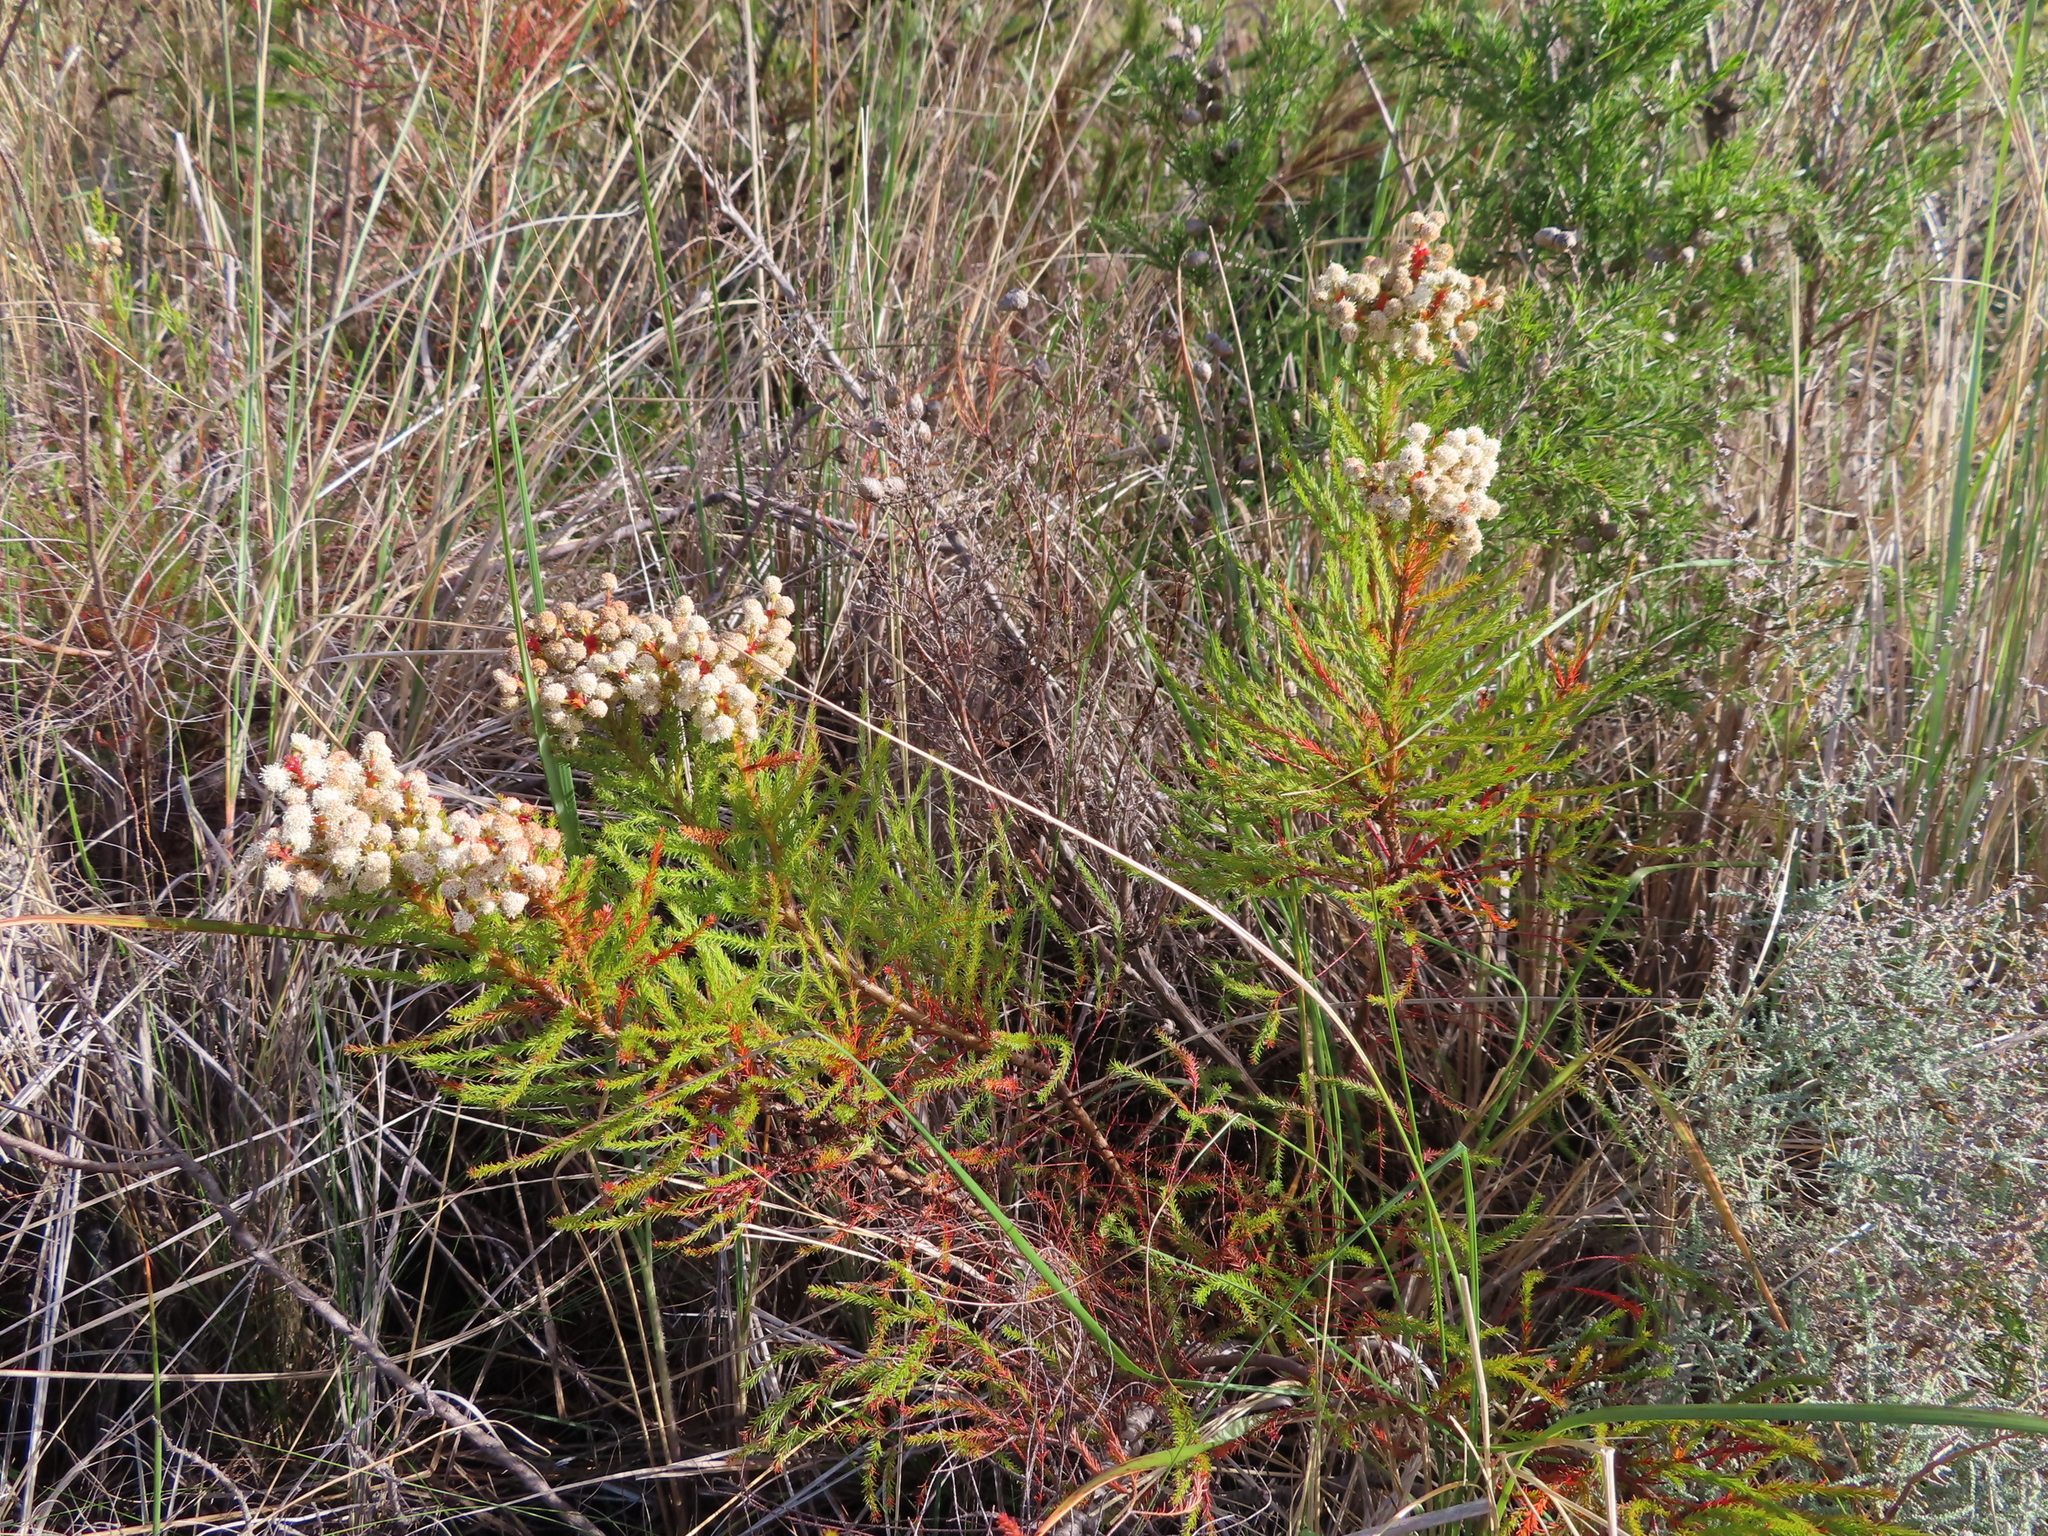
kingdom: Plantae
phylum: Tracheophyta
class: Magnoliopsida
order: Bruniales
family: Bruniaceae
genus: Berzelia
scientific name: Berzelia abrotanoides
